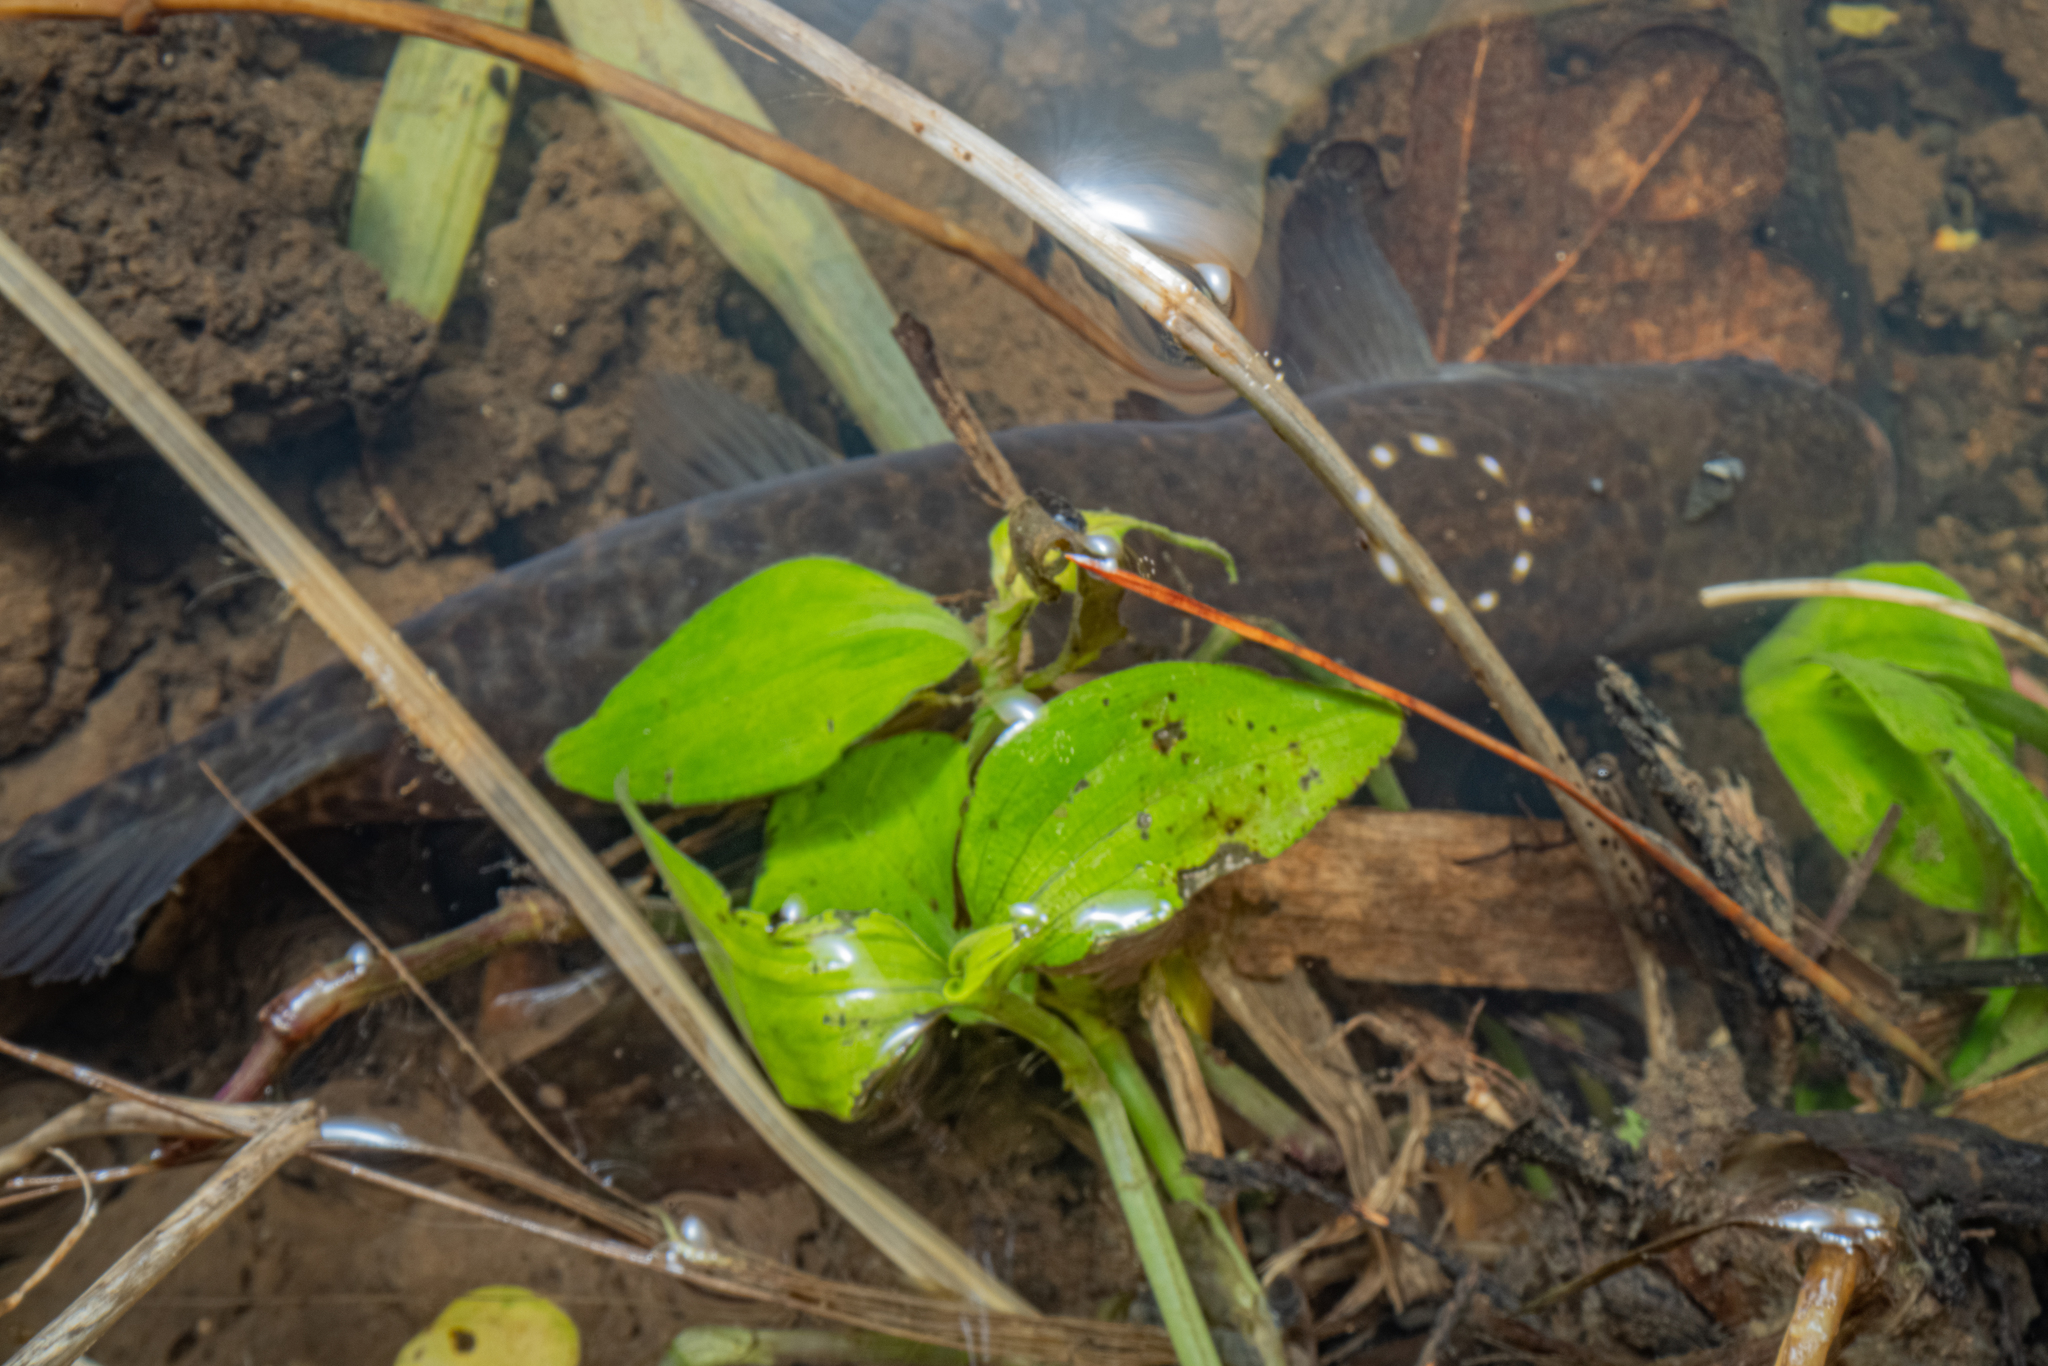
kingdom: Animalia
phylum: Chordata
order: Osmeriformes
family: Galaxiidae
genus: Galaxias
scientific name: Galaxias fasciatus
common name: Banded kokopu
